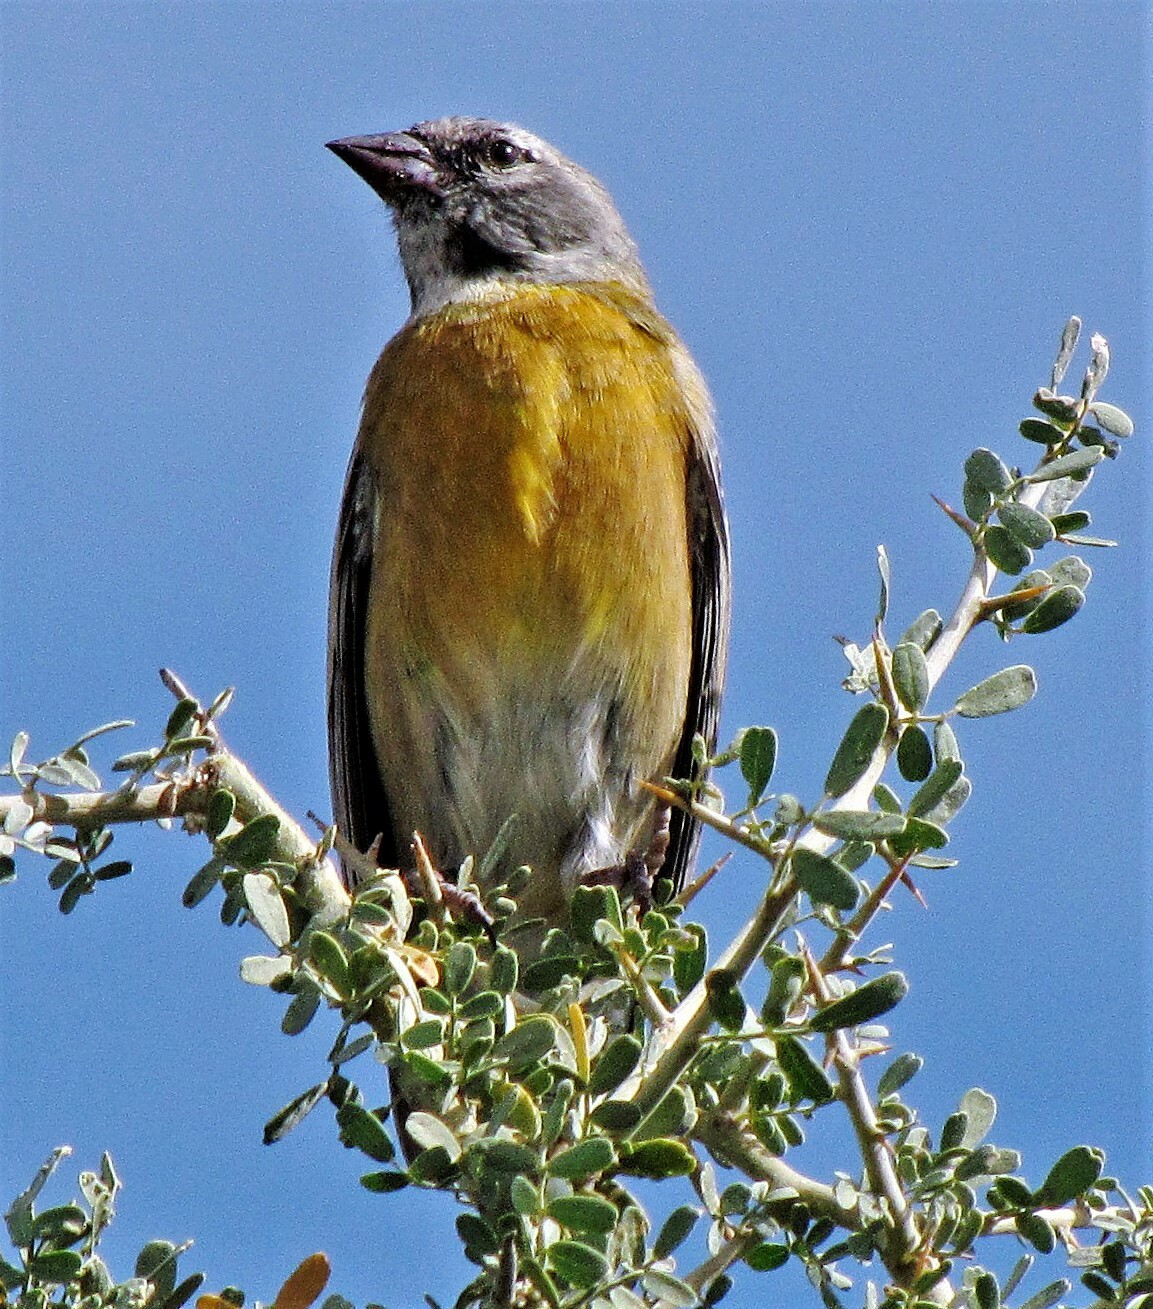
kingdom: Animalia
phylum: Chordata
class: Aves
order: Passeriformes
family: Thraupidae
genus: Phrygilus
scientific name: Phrygilus gayi
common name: Grey-hooded sierra finch
